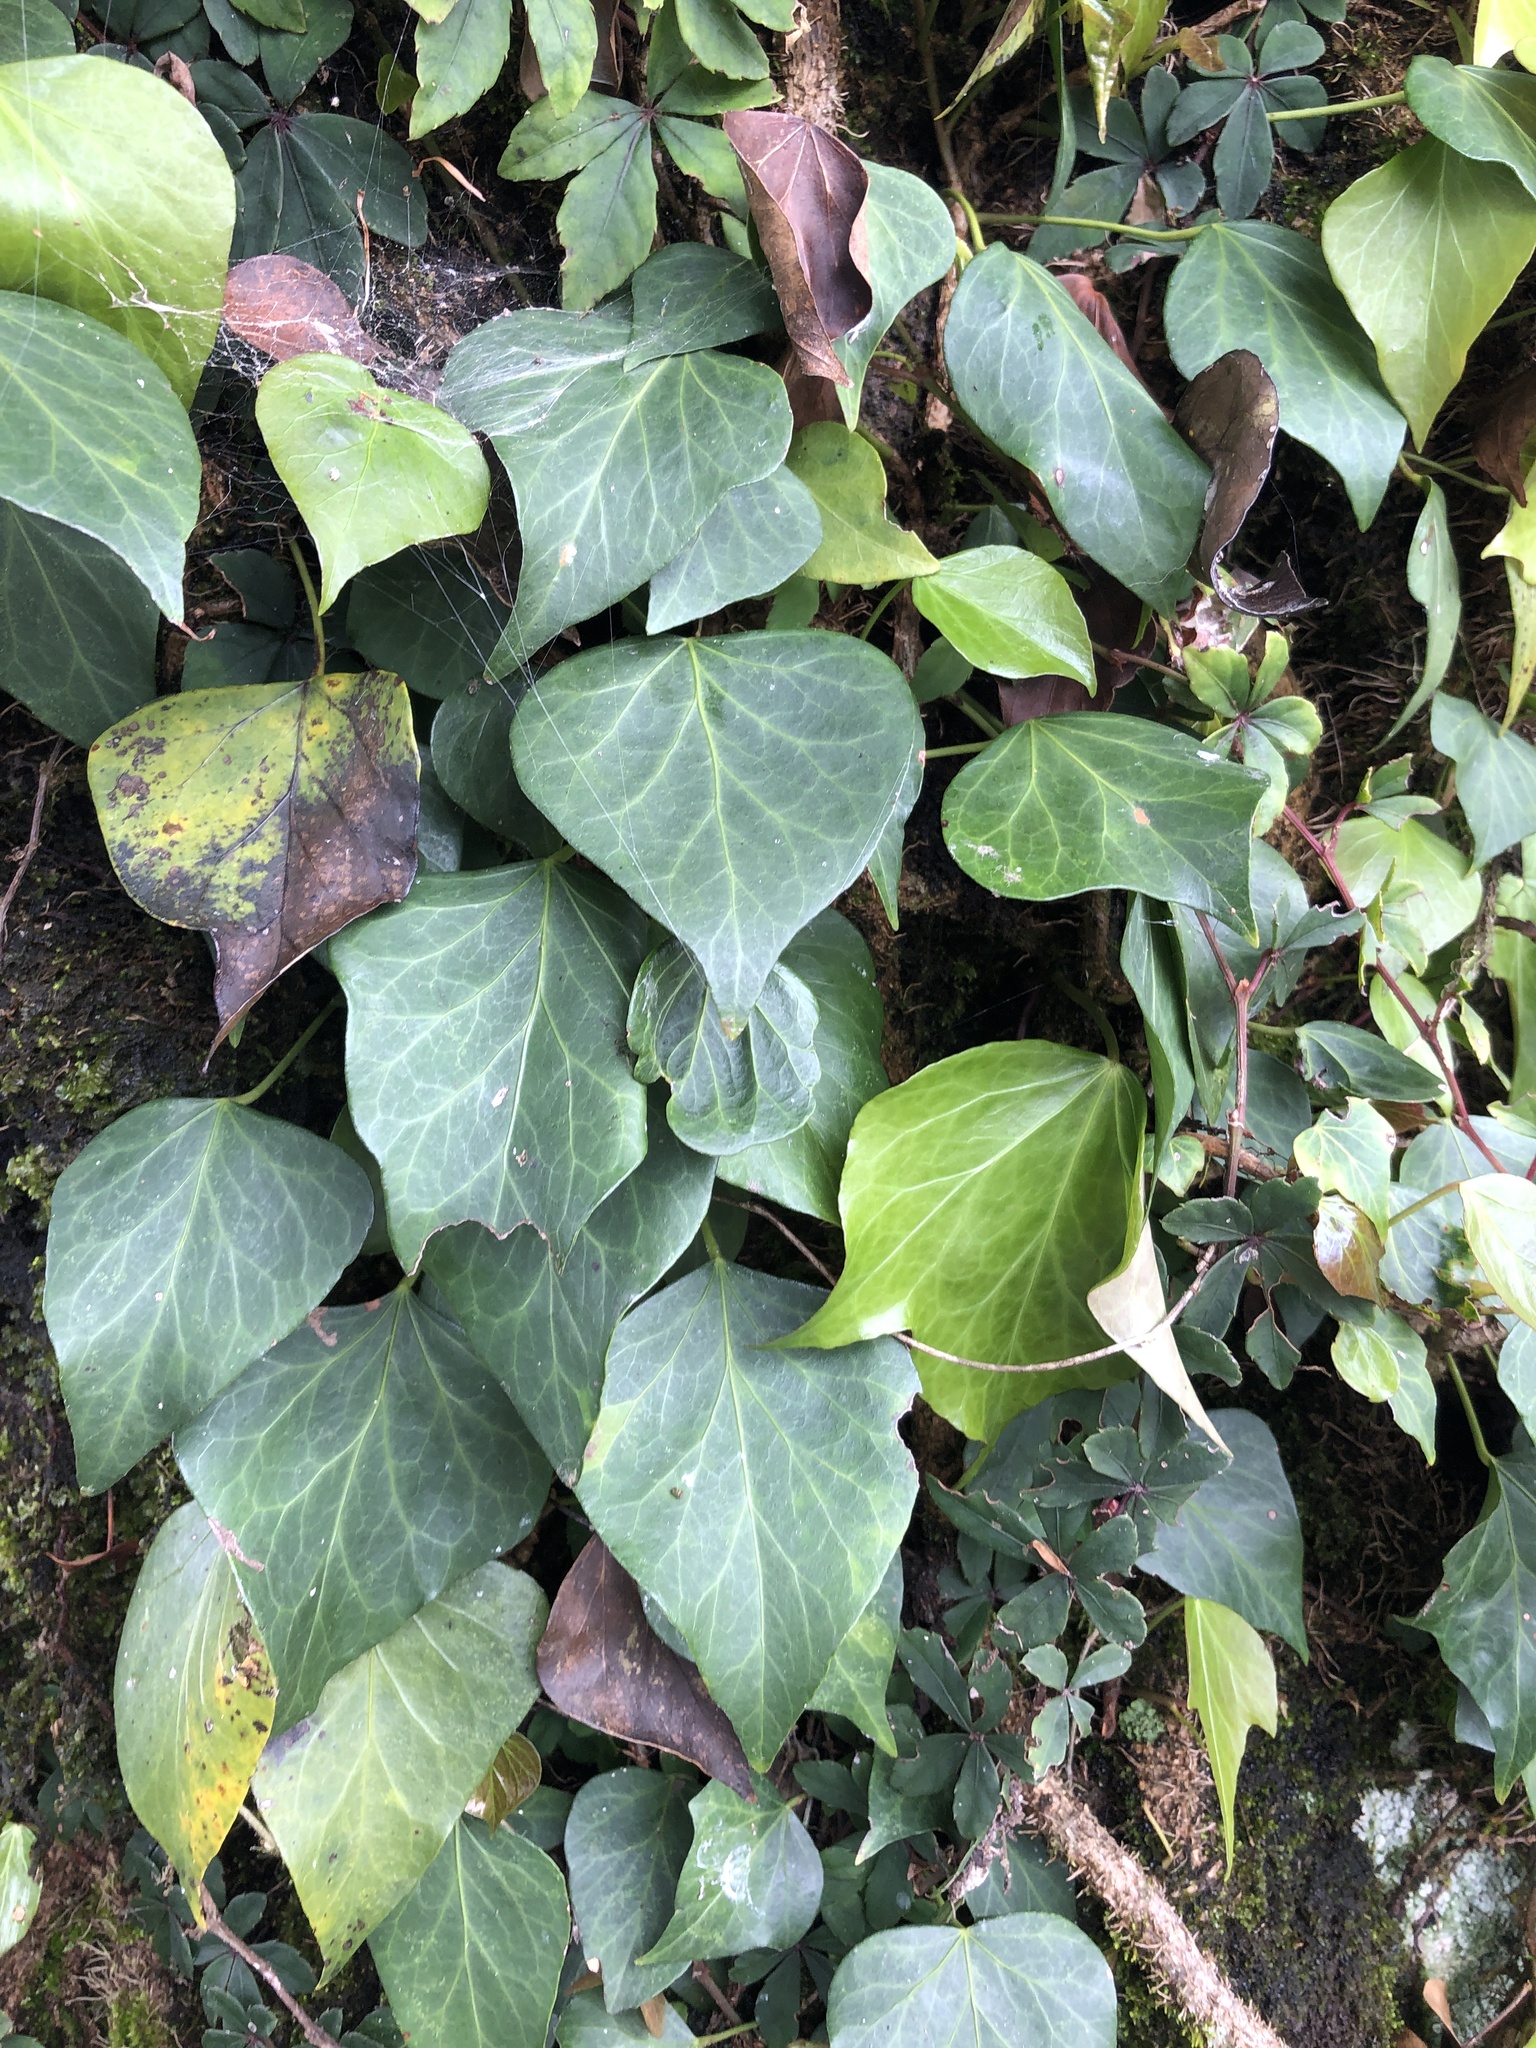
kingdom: Plantae
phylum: Tracheophyta
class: Magnoliopsida
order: Apiales
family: Araliaceae
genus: Hedera
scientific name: Hedera rhombea
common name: Japanese ivy
